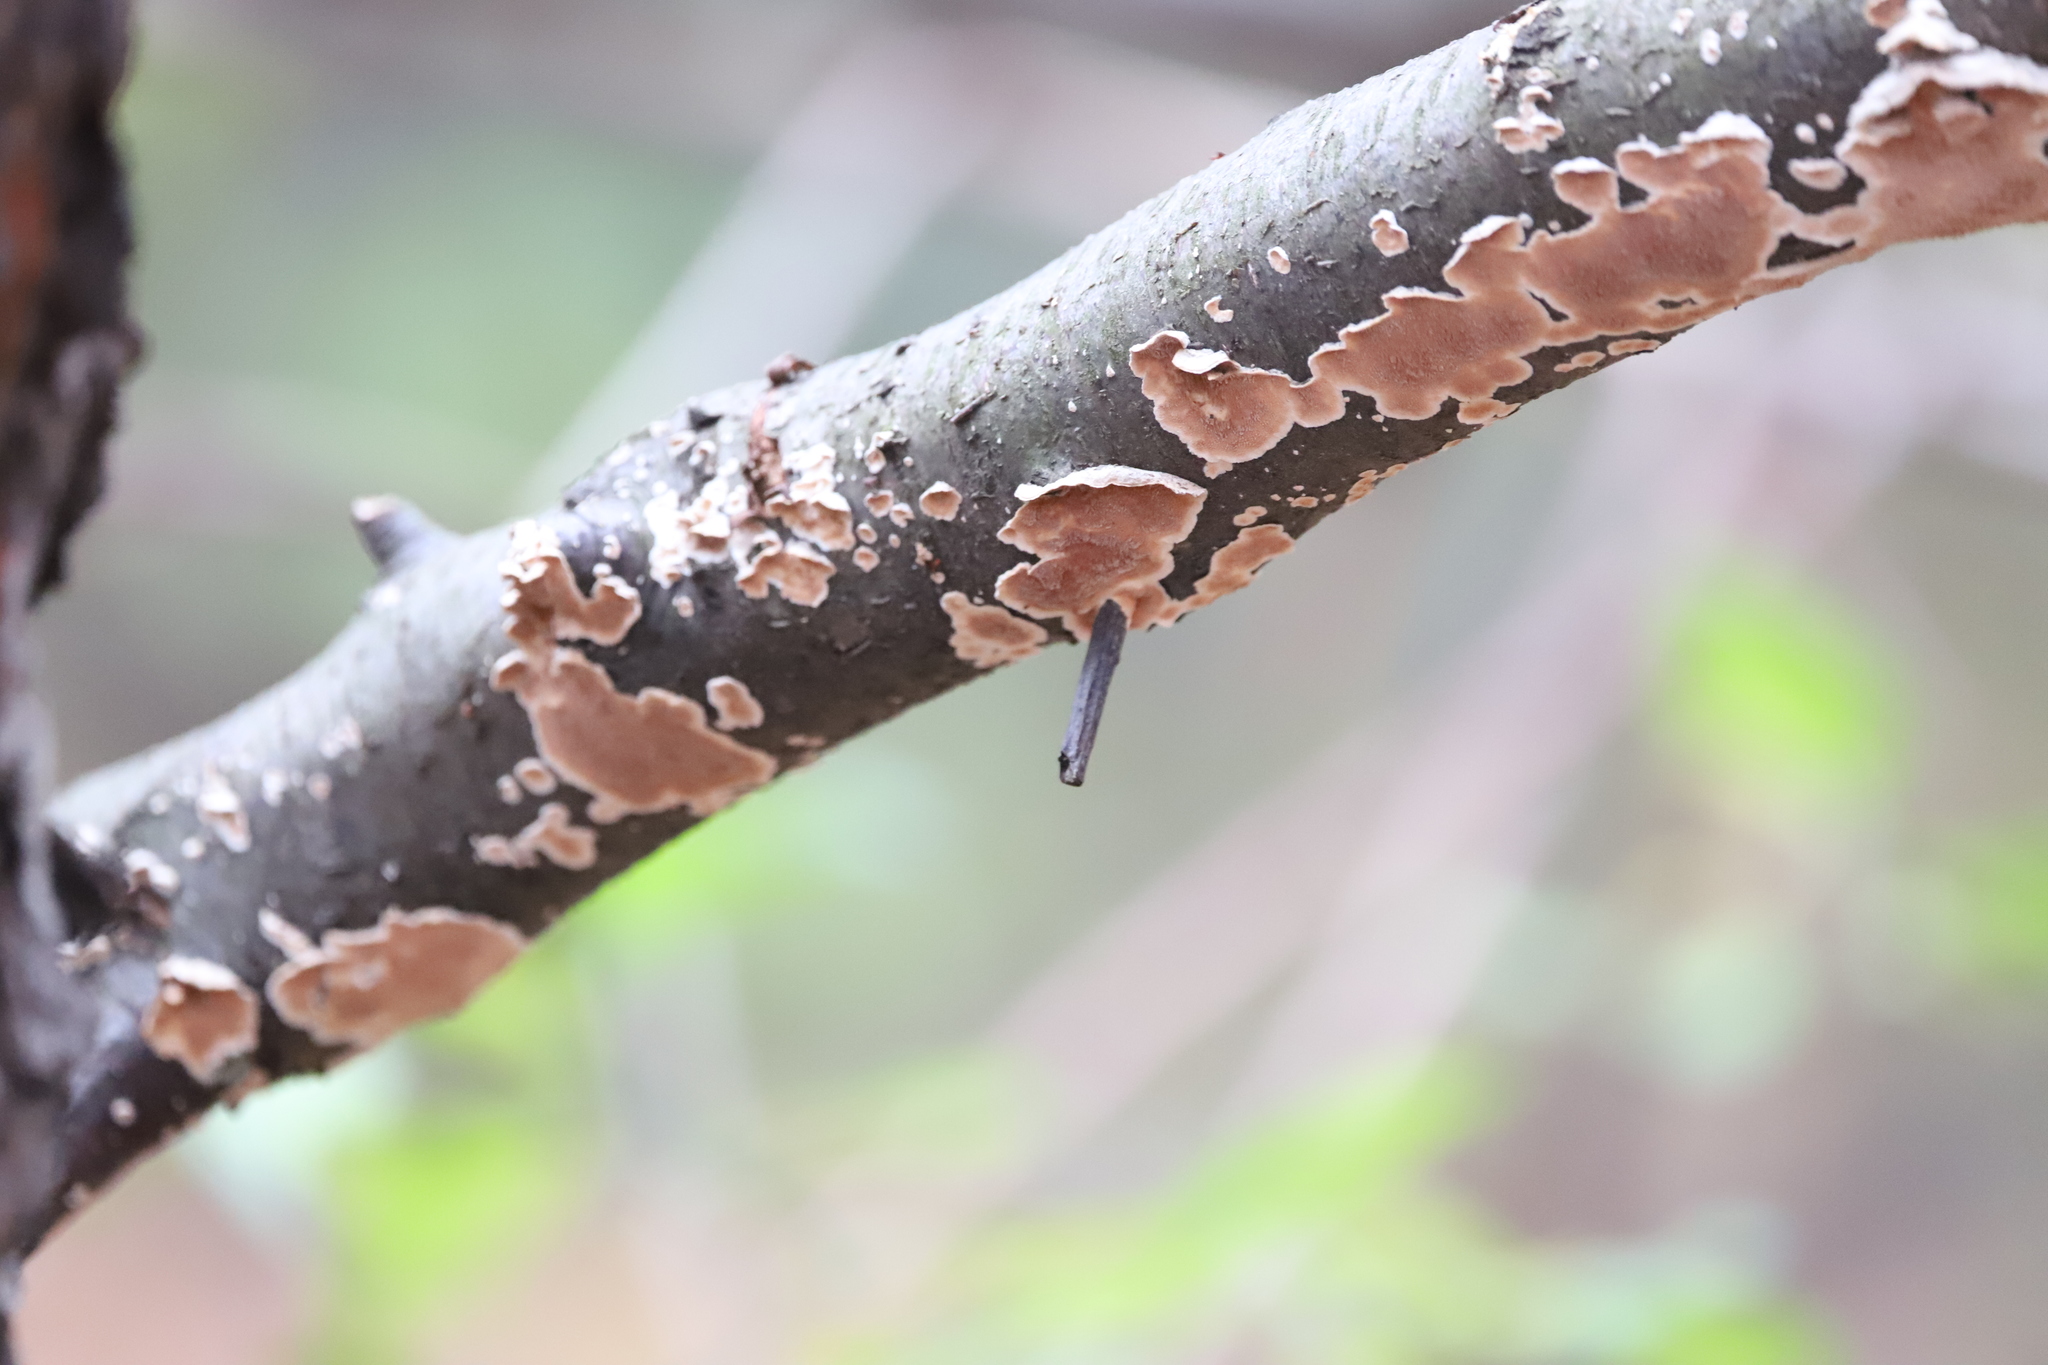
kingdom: Fungi
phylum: Basidiomycota
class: Agaricomycetes
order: Polyporales
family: Steccherinaceae
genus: Steccherinum
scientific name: Steccherinum ochraceum
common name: Ochre spreading tooth
